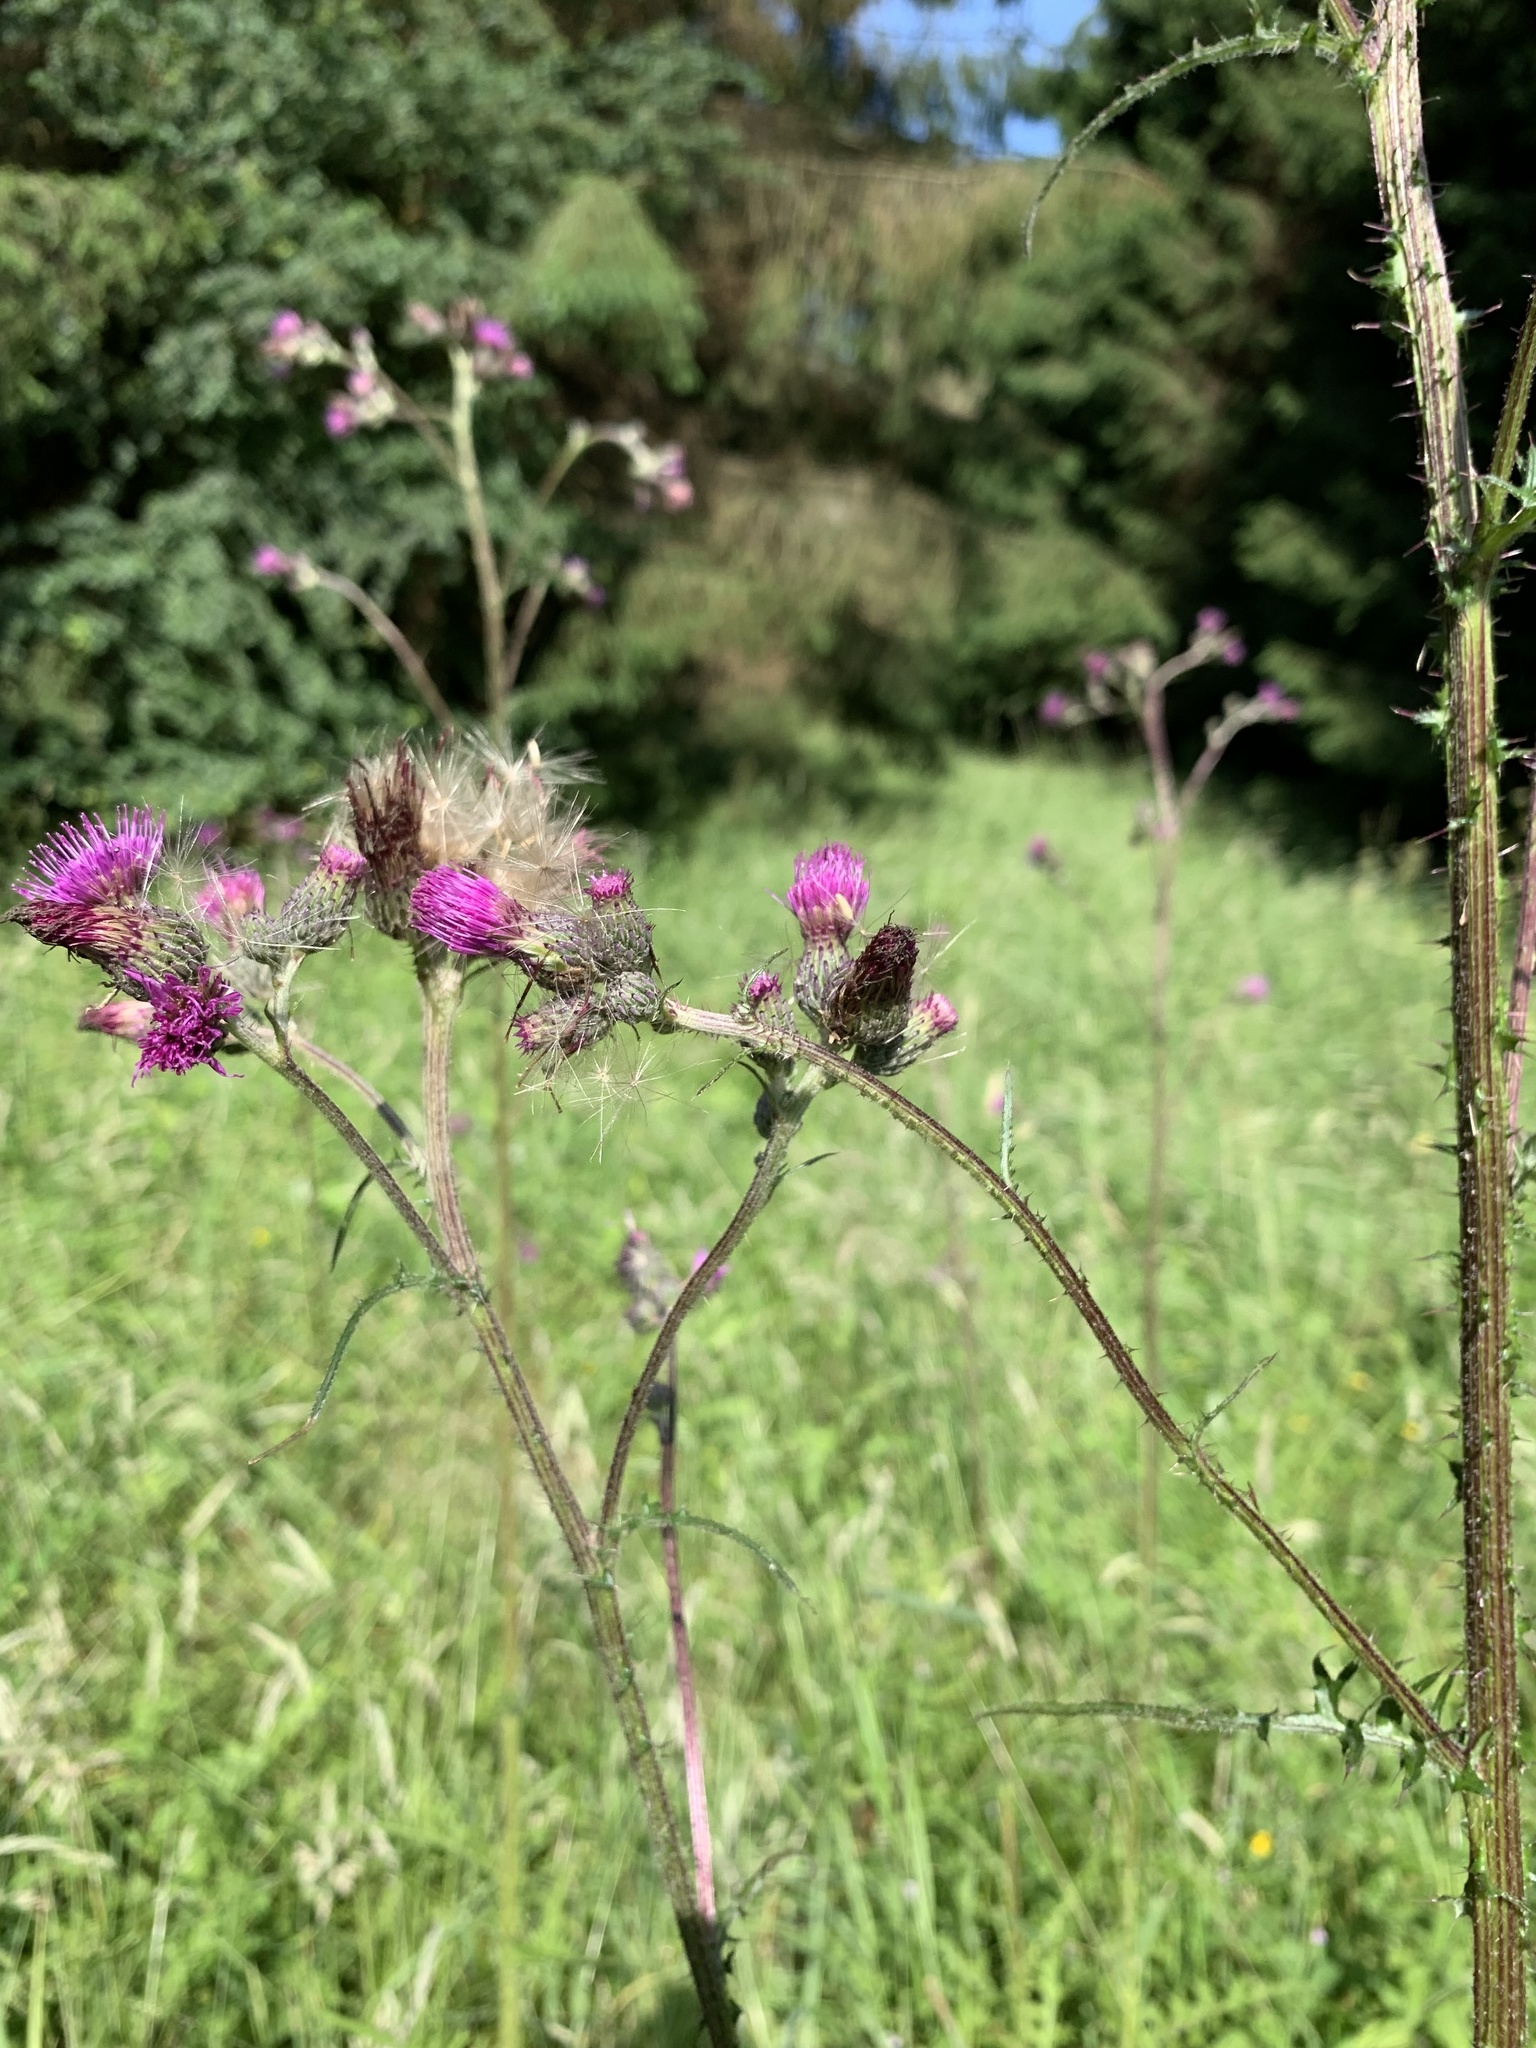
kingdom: Plantae
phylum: Tracheophyta
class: Magnoliopsida
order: Asterales
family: Asteraceae
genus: Cirsium
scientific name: Cirsium palustre
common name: Marsh thistle
